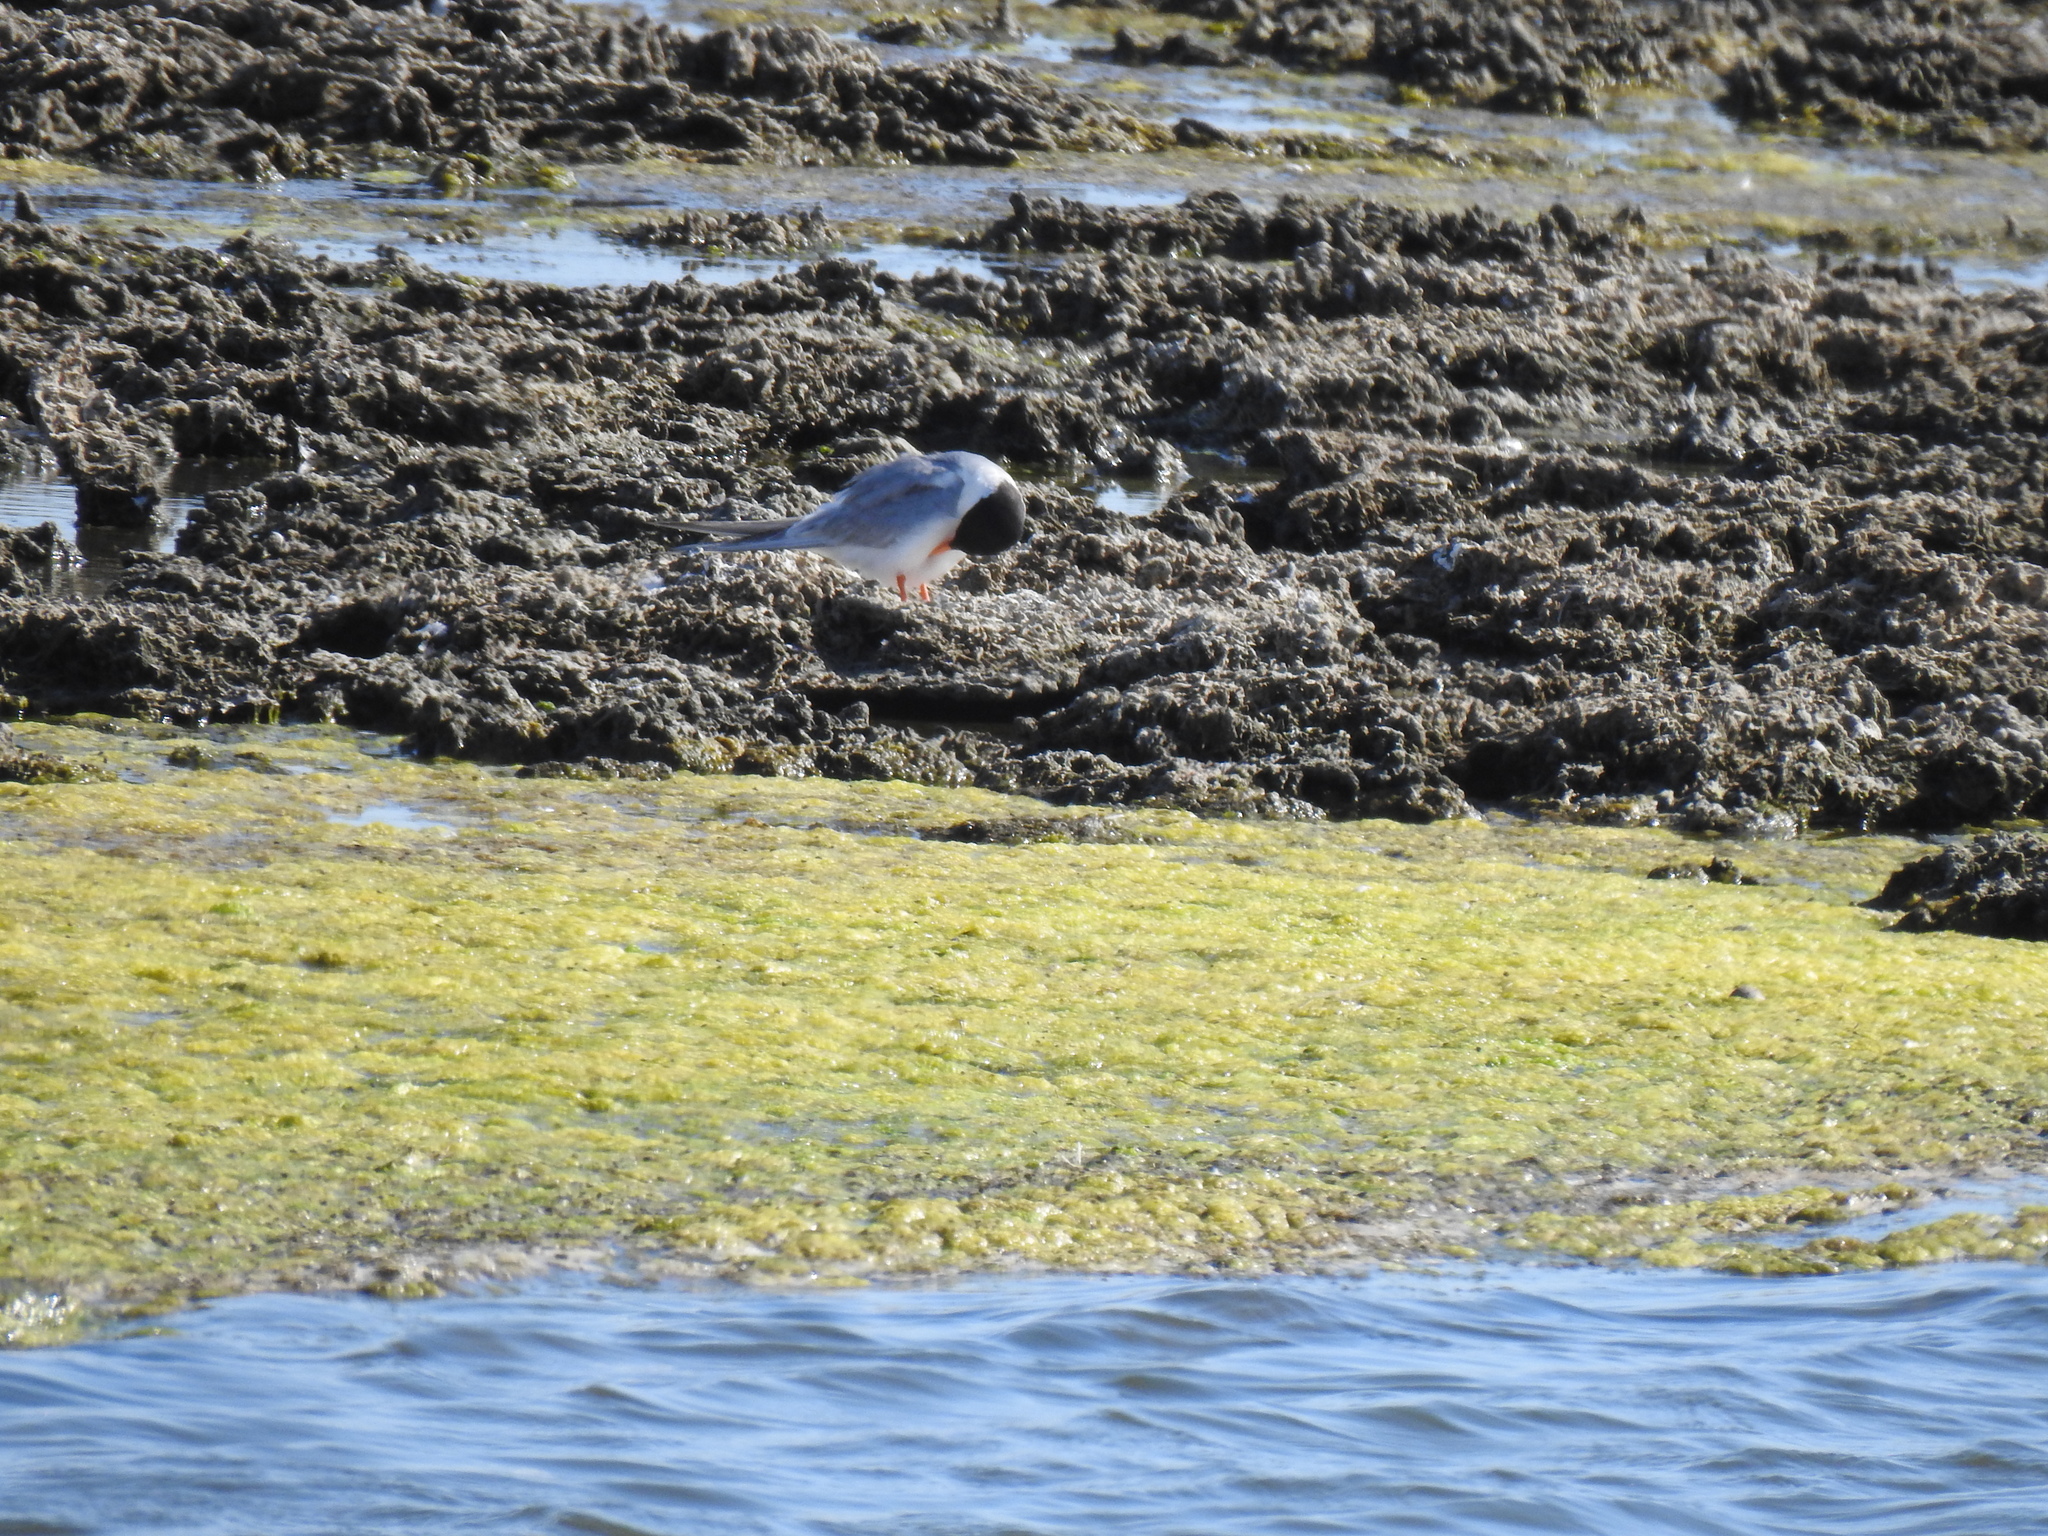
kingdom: Animalia
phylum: Chordata
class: Aves
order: Charadriiformes
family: Laridae
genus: Sterna
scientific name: Sterna forsteri
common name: Forster's tern
